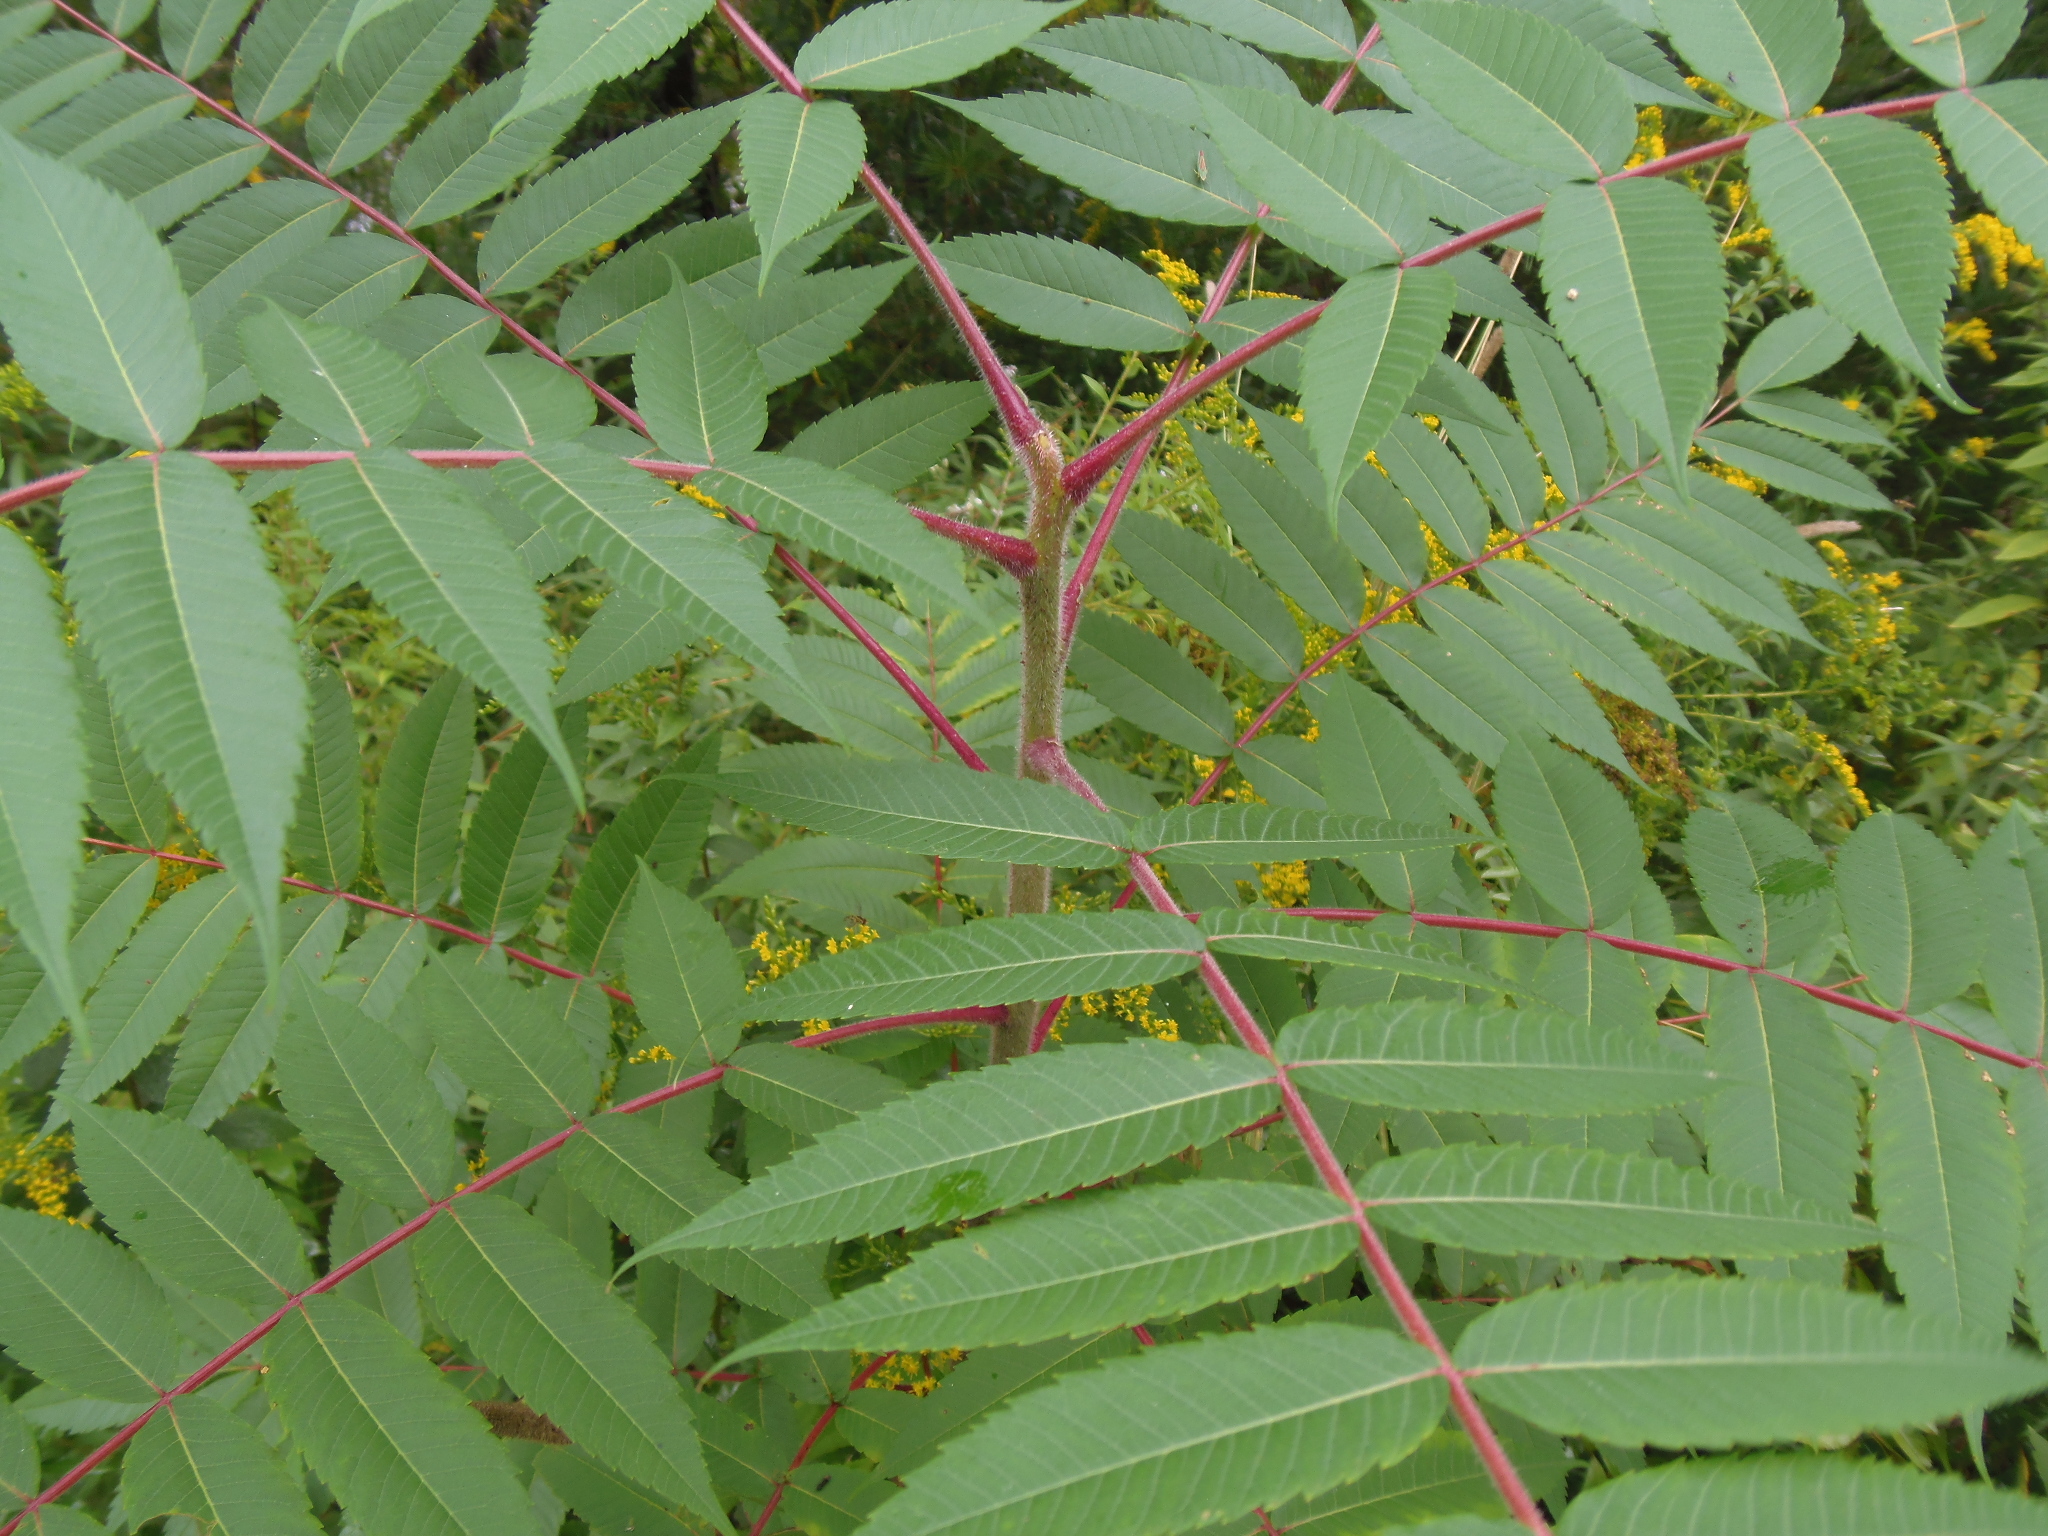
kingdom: Plantae
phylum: Tracheophyta
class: Magnoliopsida
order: Sapindales
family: Anacardiaceae
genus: Rhus
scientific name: Rhus typhina
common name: Staghorn sumac
